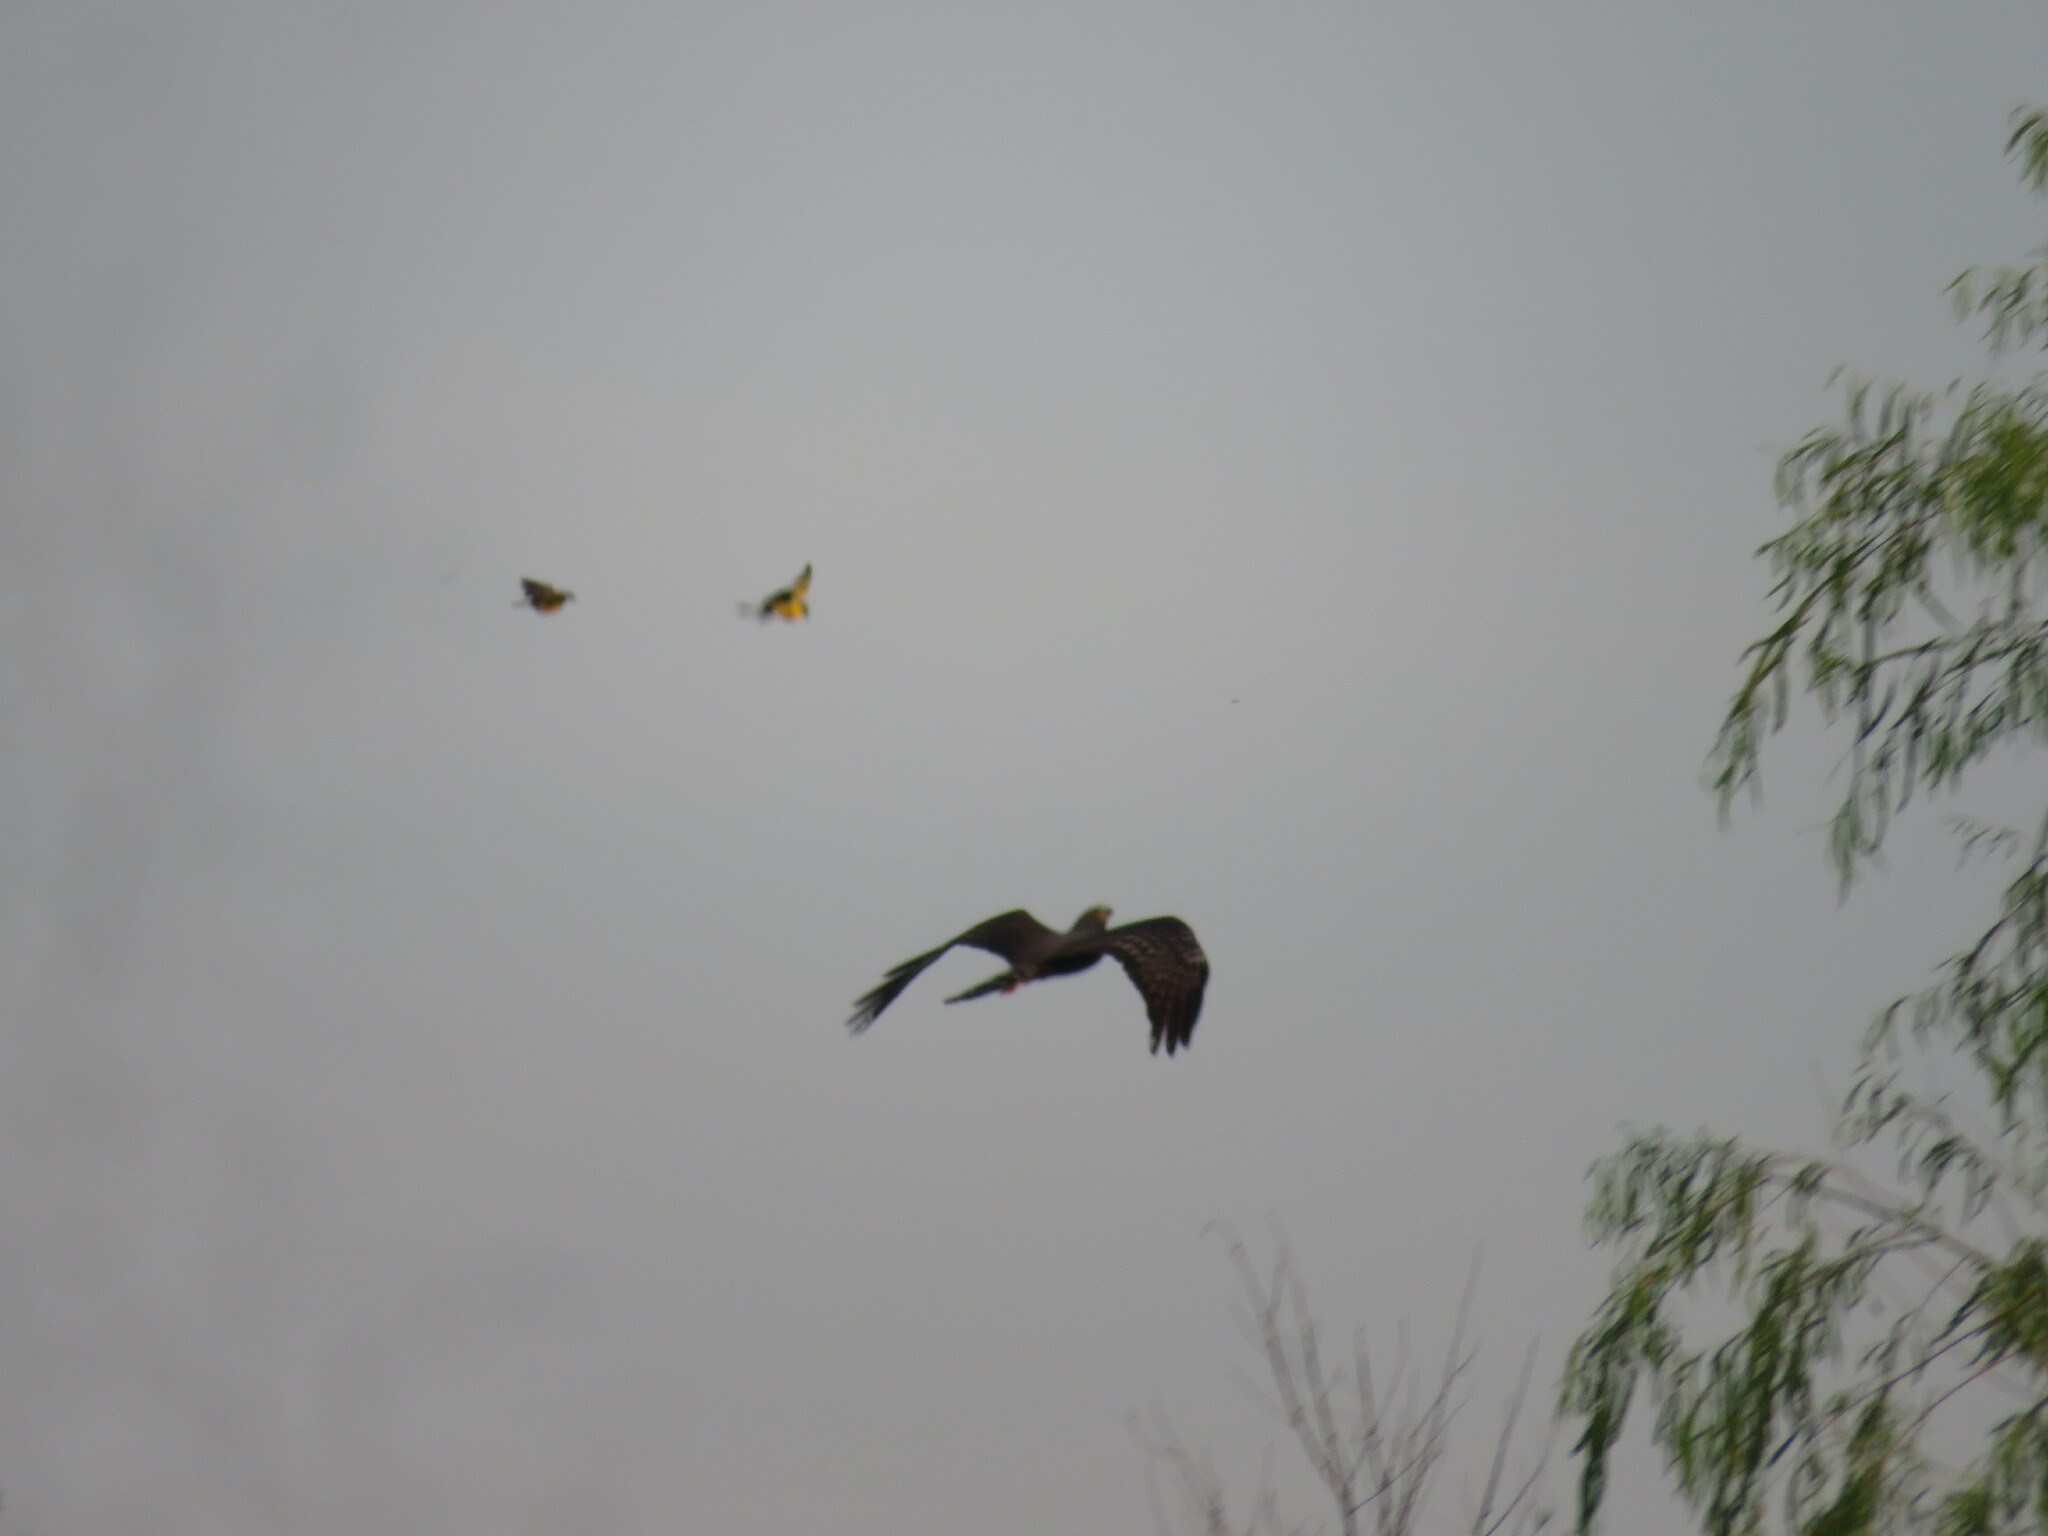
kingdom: Animalia
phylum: Chordata
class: Aves
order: Accipitriformes
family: Accipitridae
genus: Circus
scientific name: Circus buffoni
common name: Long-winged harrier
